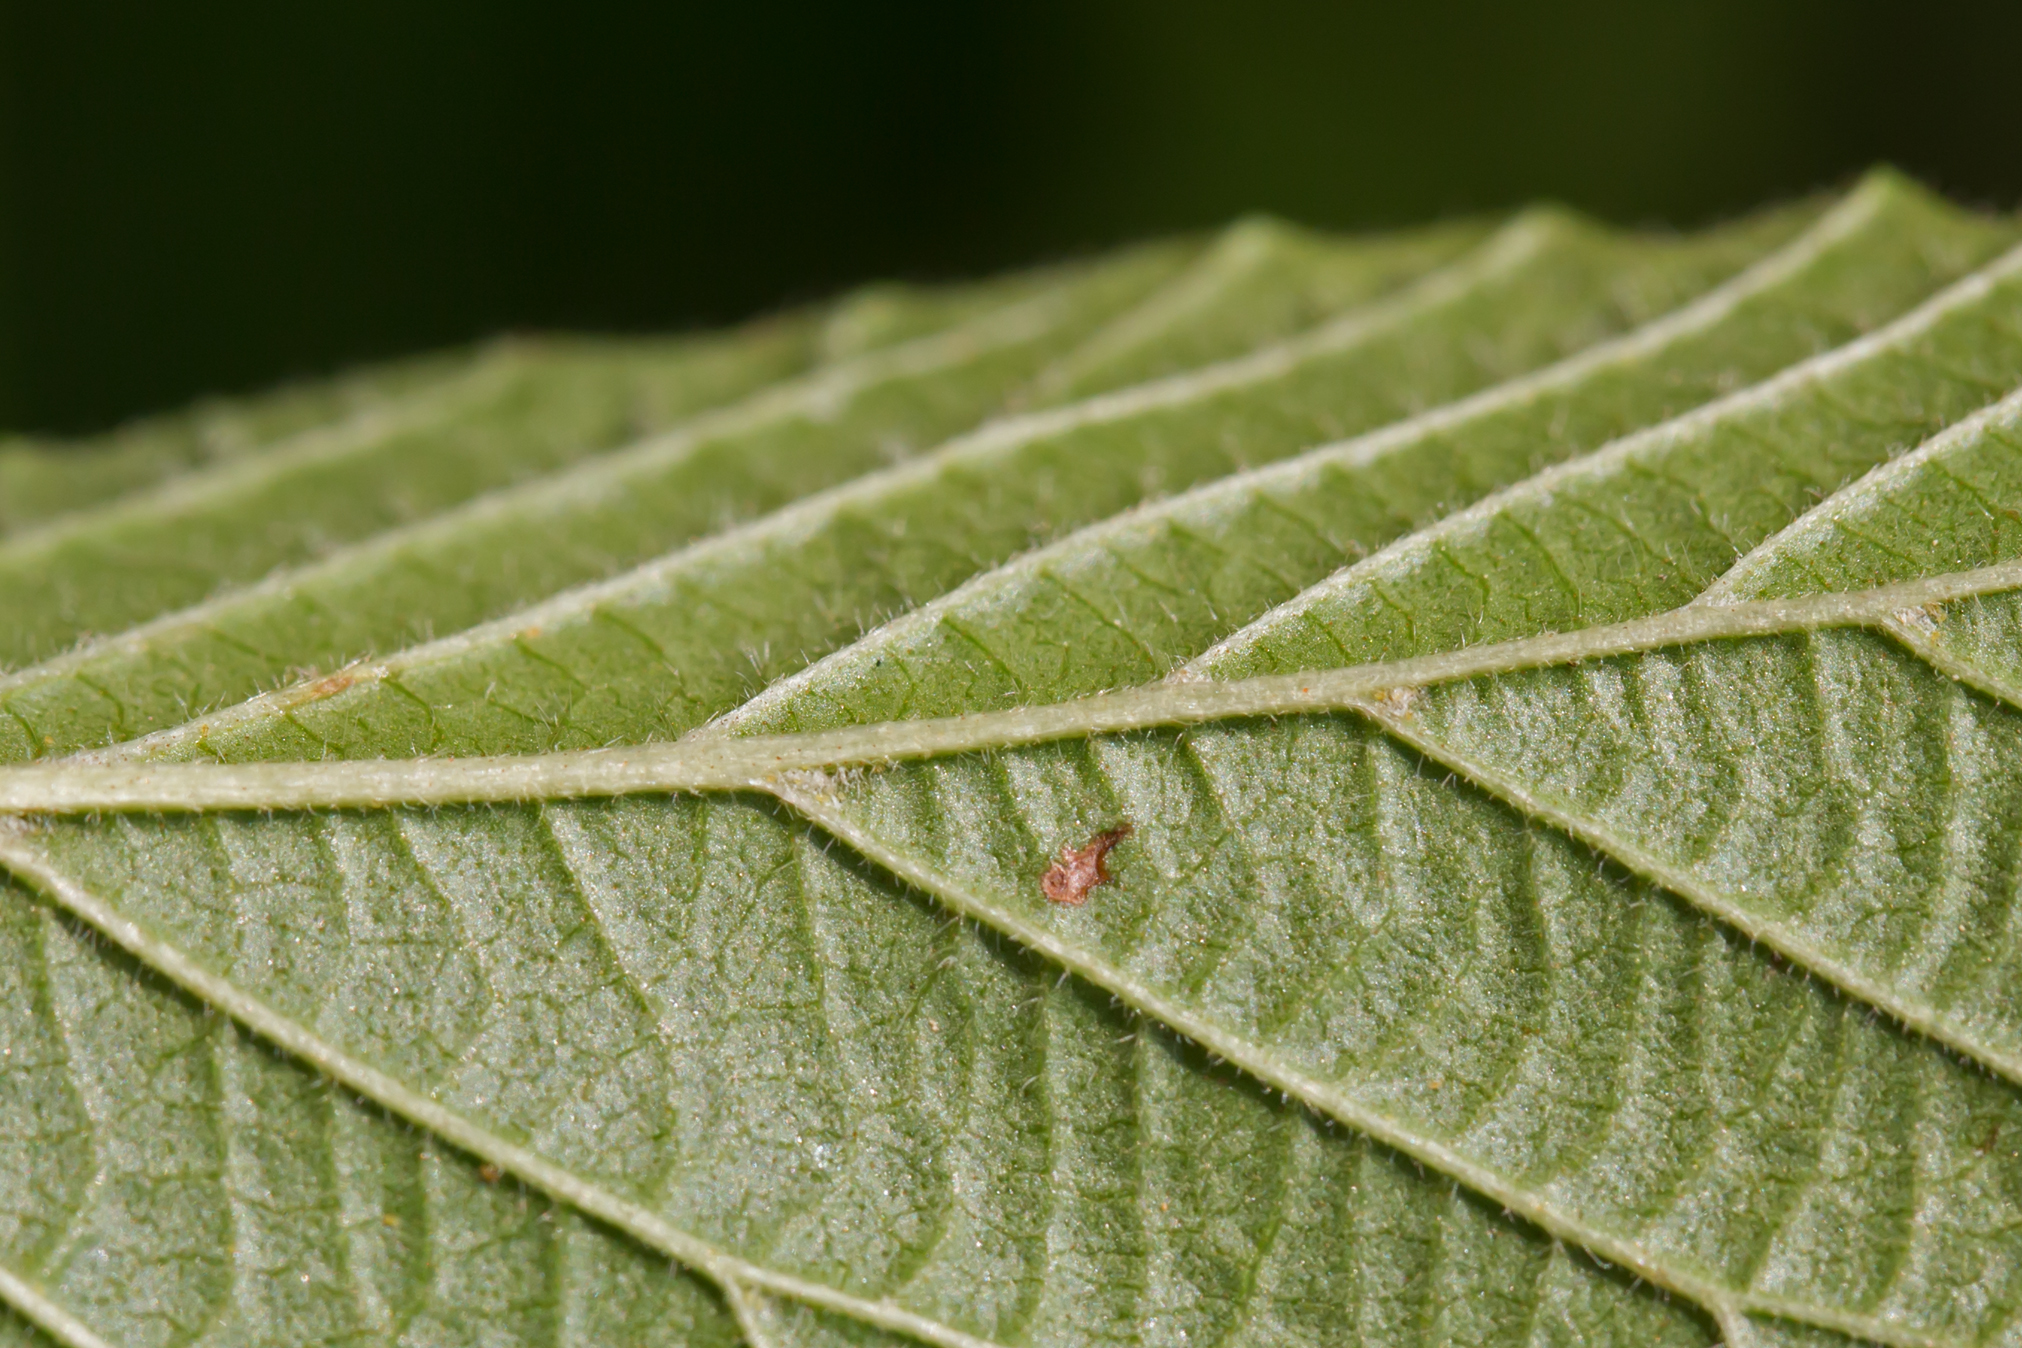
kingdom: Plantae
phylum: Tracheophyta
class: Magnoliopsida
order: Dipsacales
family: Viburnaceae
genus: Viburnum
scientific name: Viburnum dilatatum
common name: Linden arrowwood
